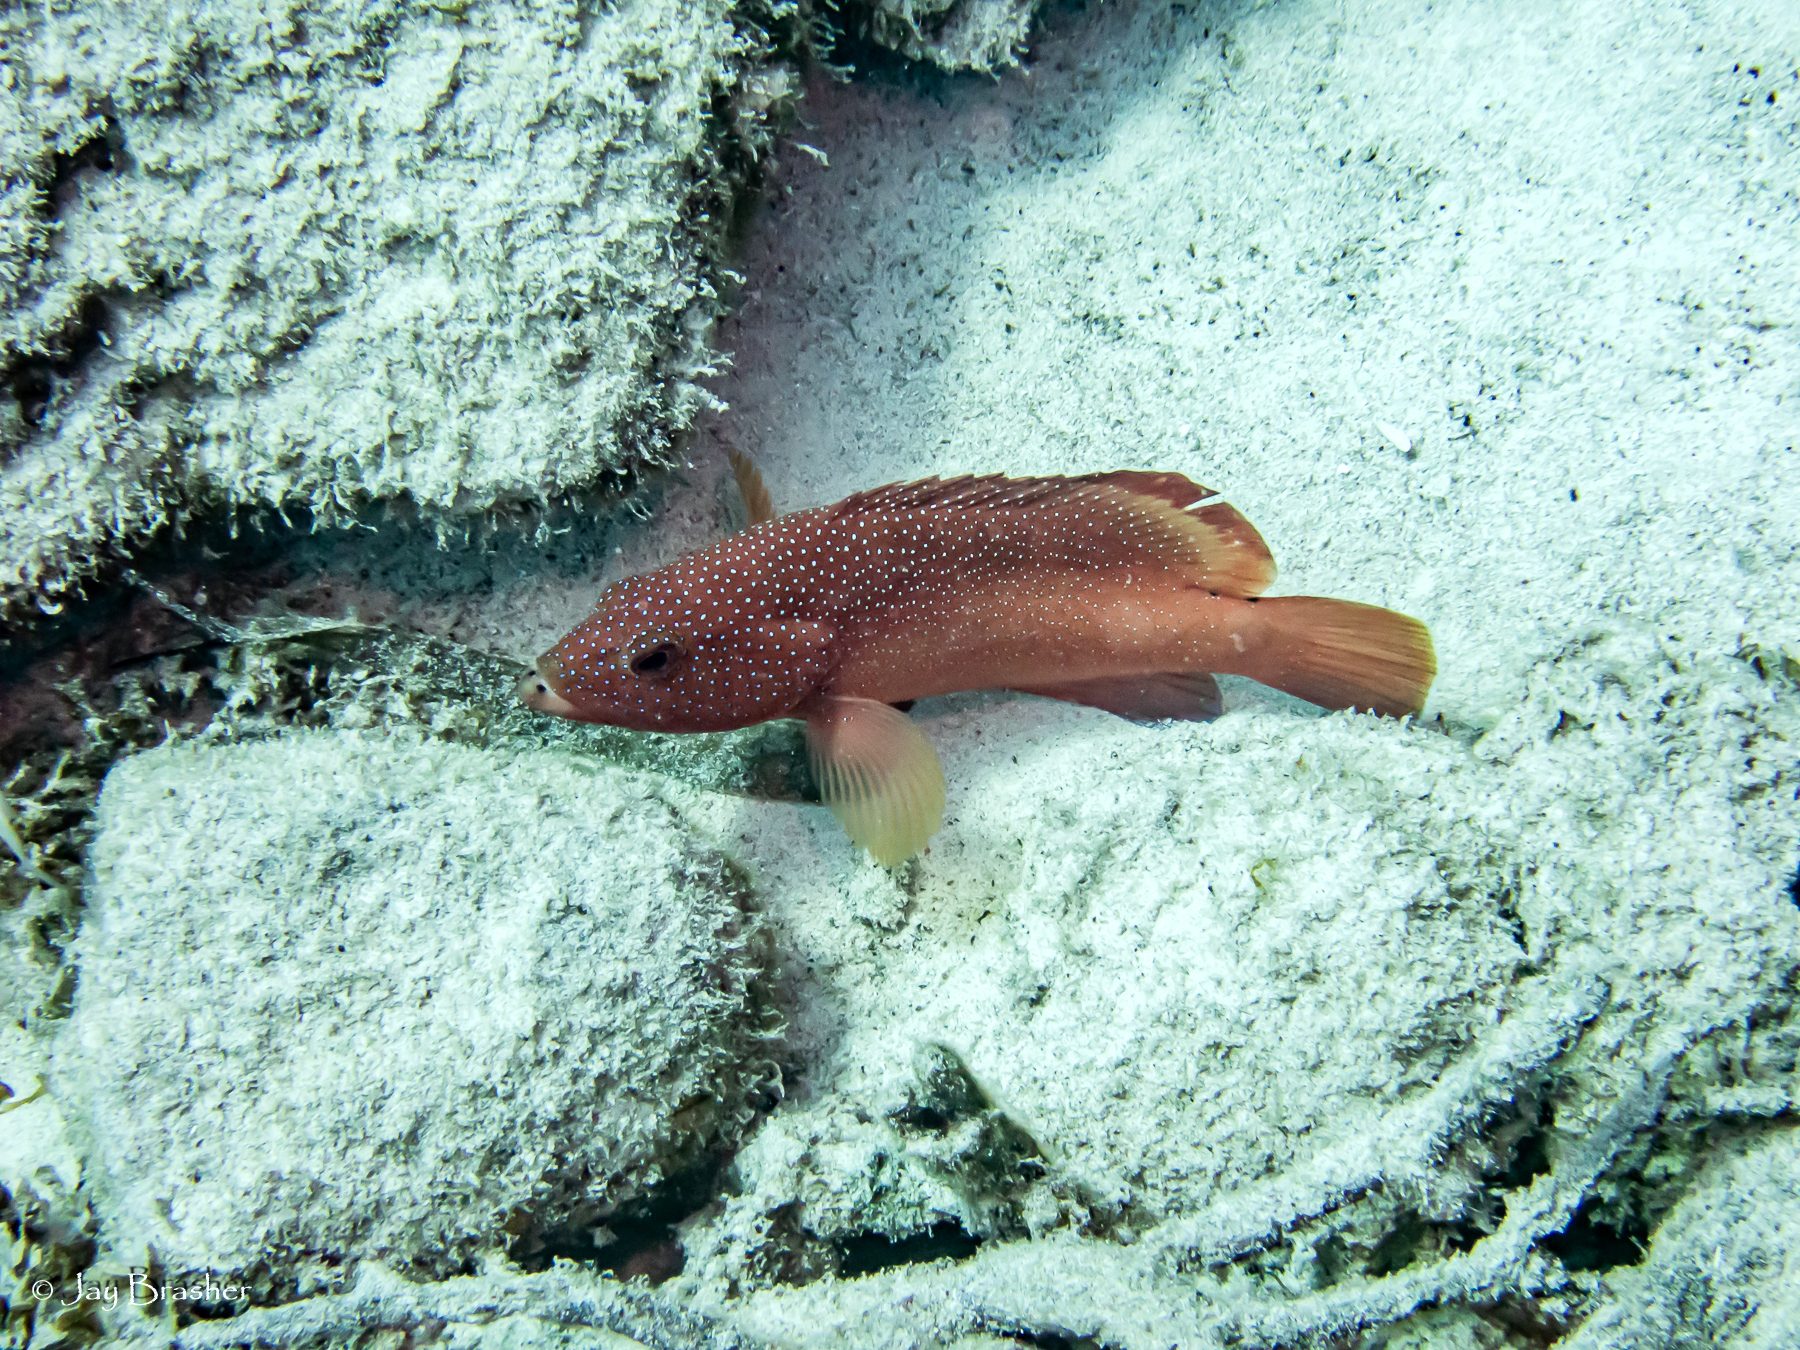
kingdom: Animalia
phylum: Chordata
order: Perciformes
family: Serranidae
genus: Cephalopholis
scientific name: Cephalopholis fulva
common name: Butterfish
